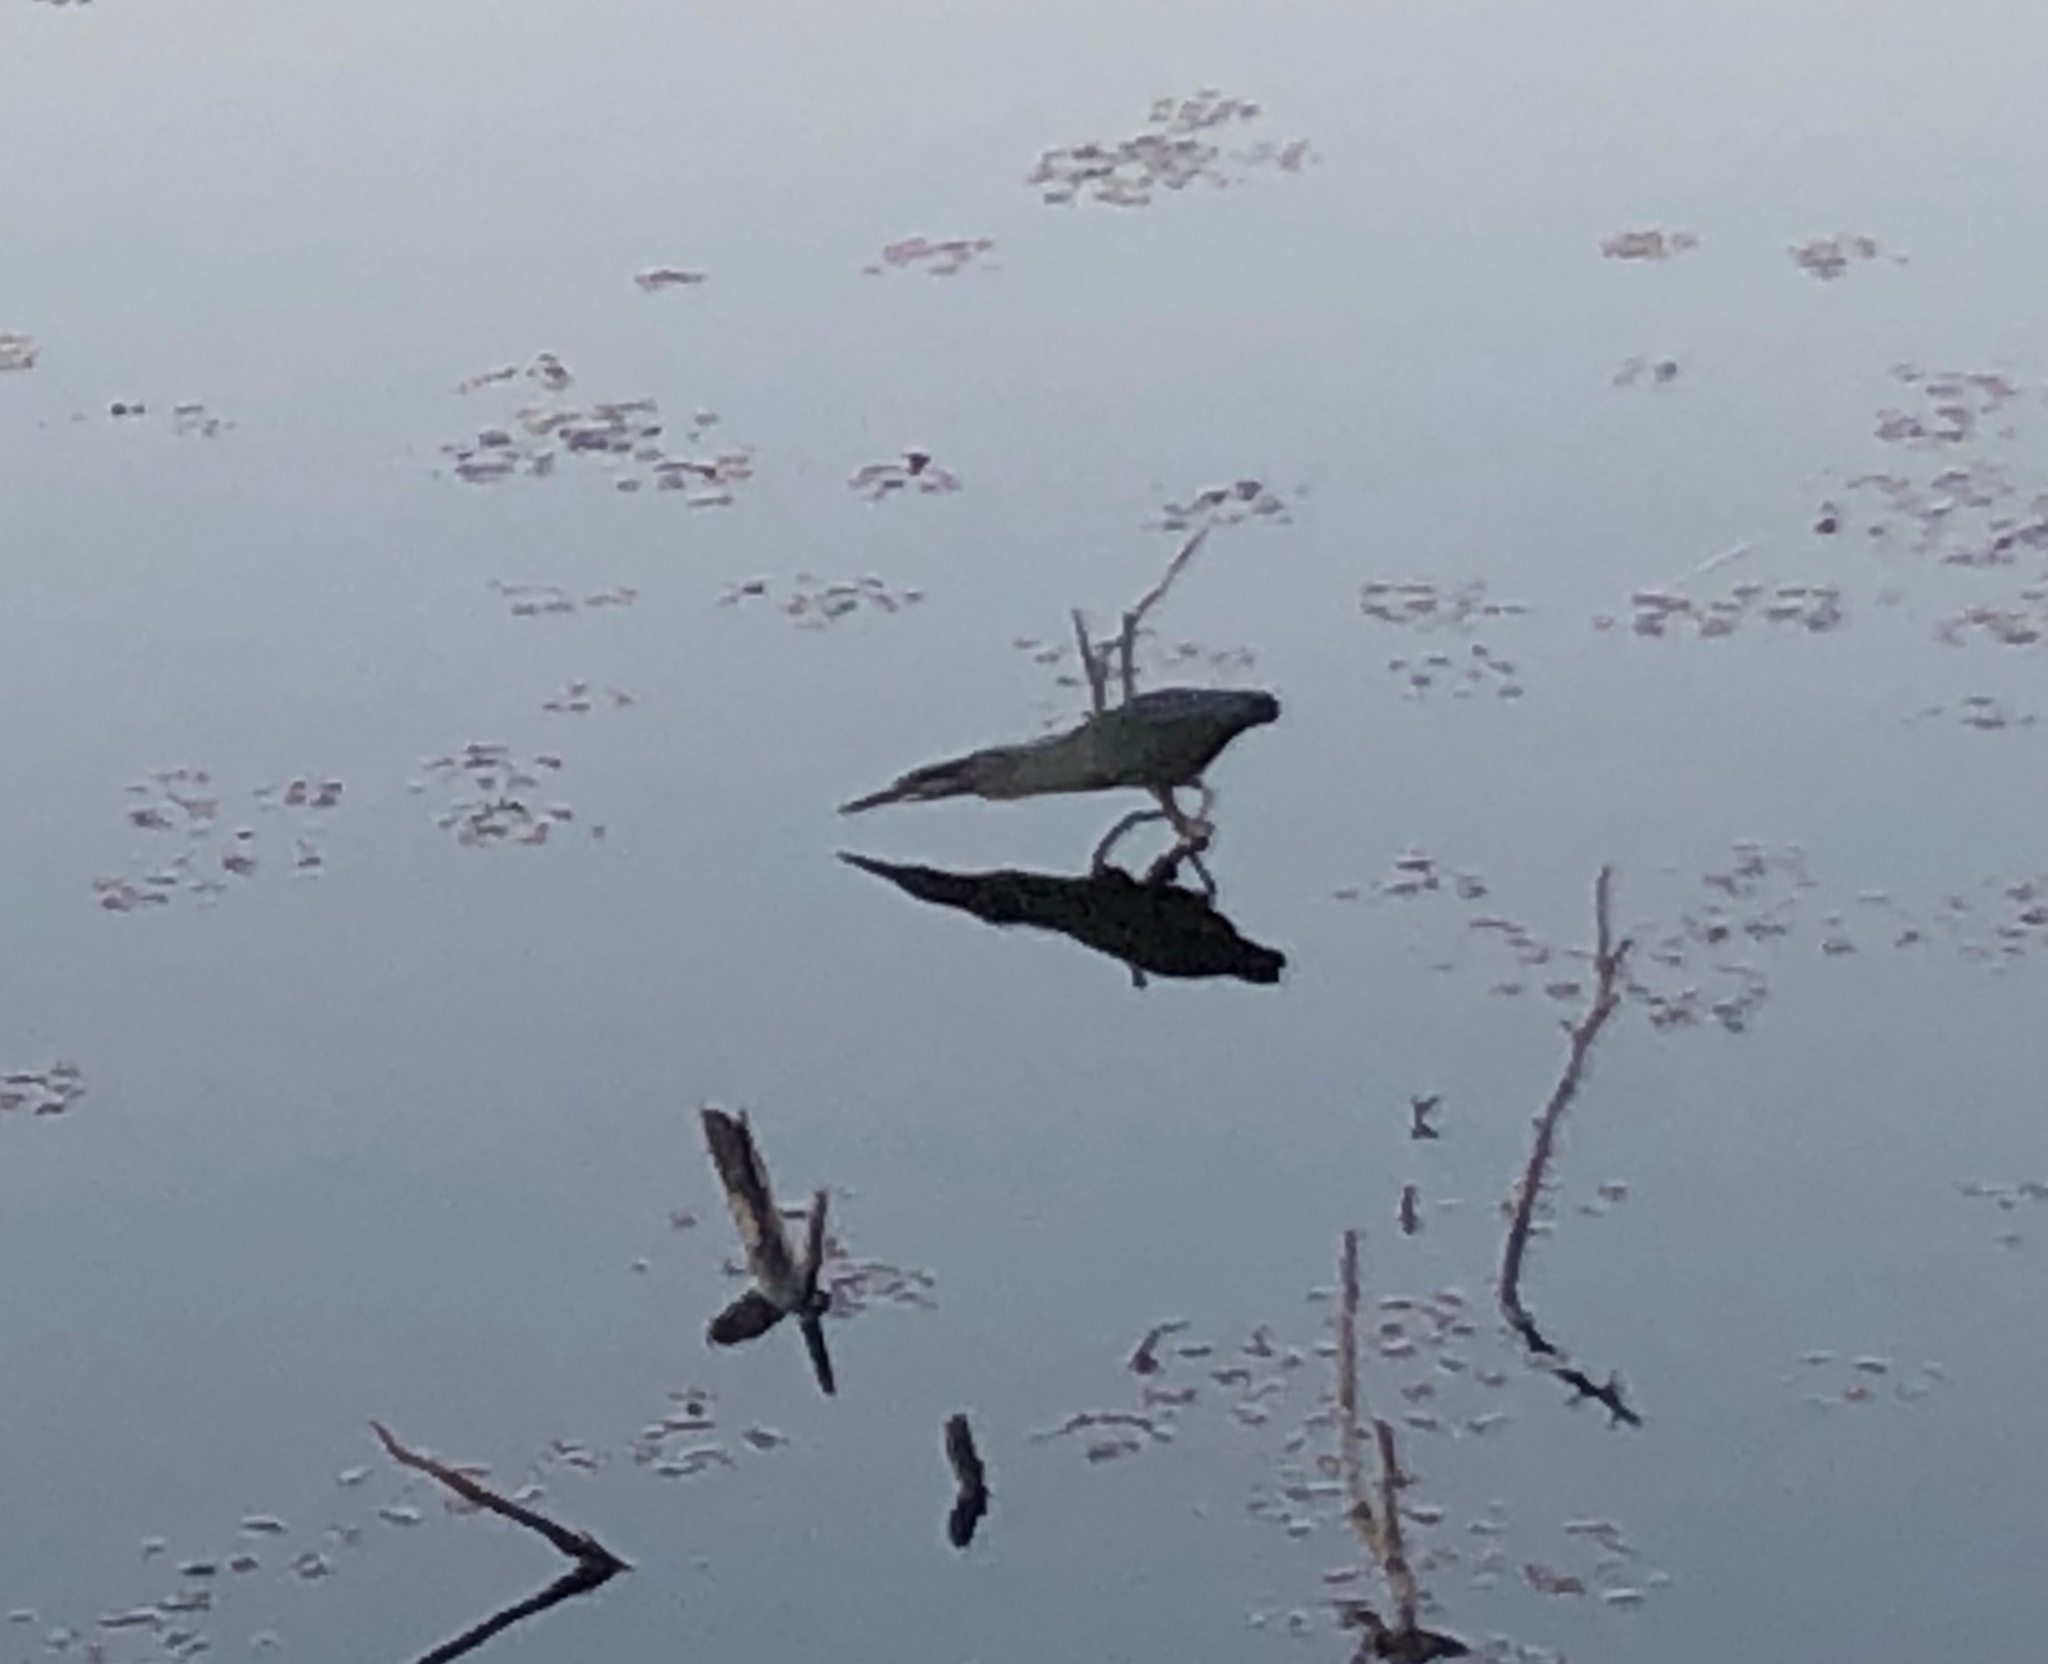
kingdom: Animalia
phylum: Chordata
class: Aves
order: Pelecaniformes
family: Ardeidae
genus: Butorides
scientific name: Butorides striata
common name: Striated heron
